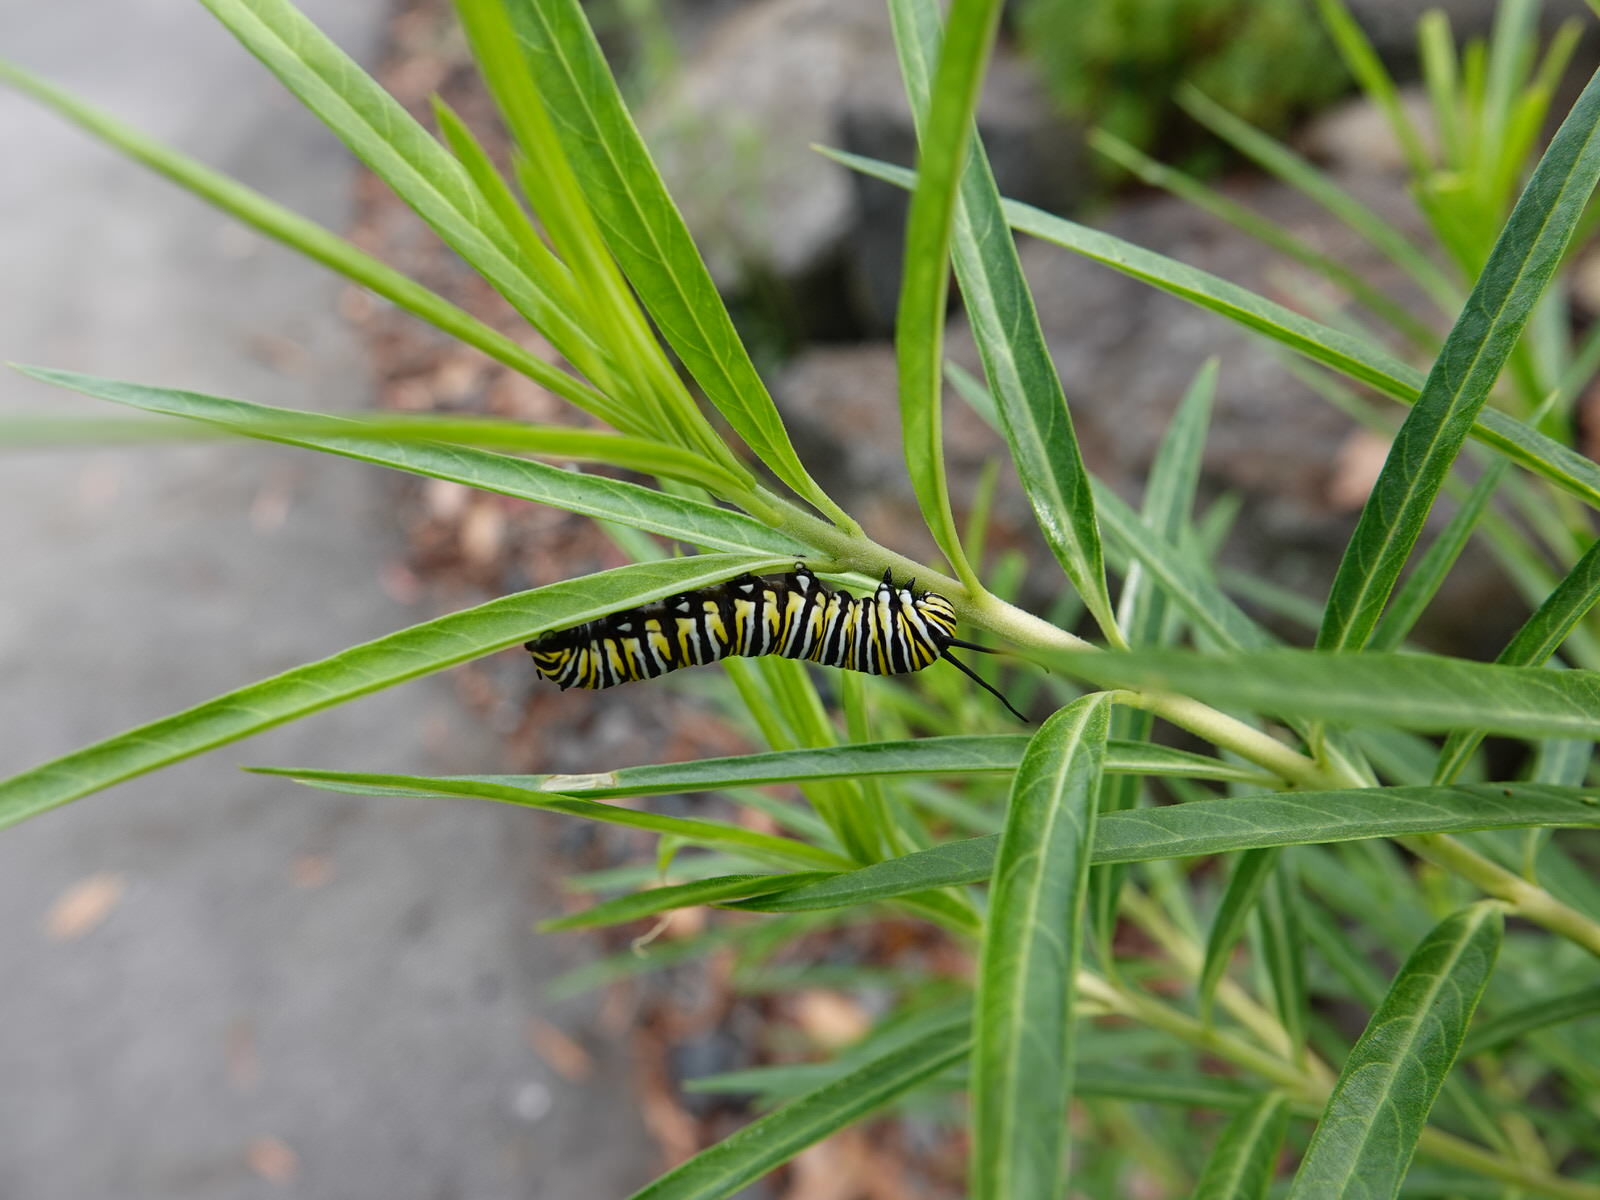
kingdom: Animalia
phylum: Arthropoda
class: Insecta
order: Lepidoptera
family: Nymphalidae
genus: Danaus
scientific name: Danaus plexippus
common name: Monarch
